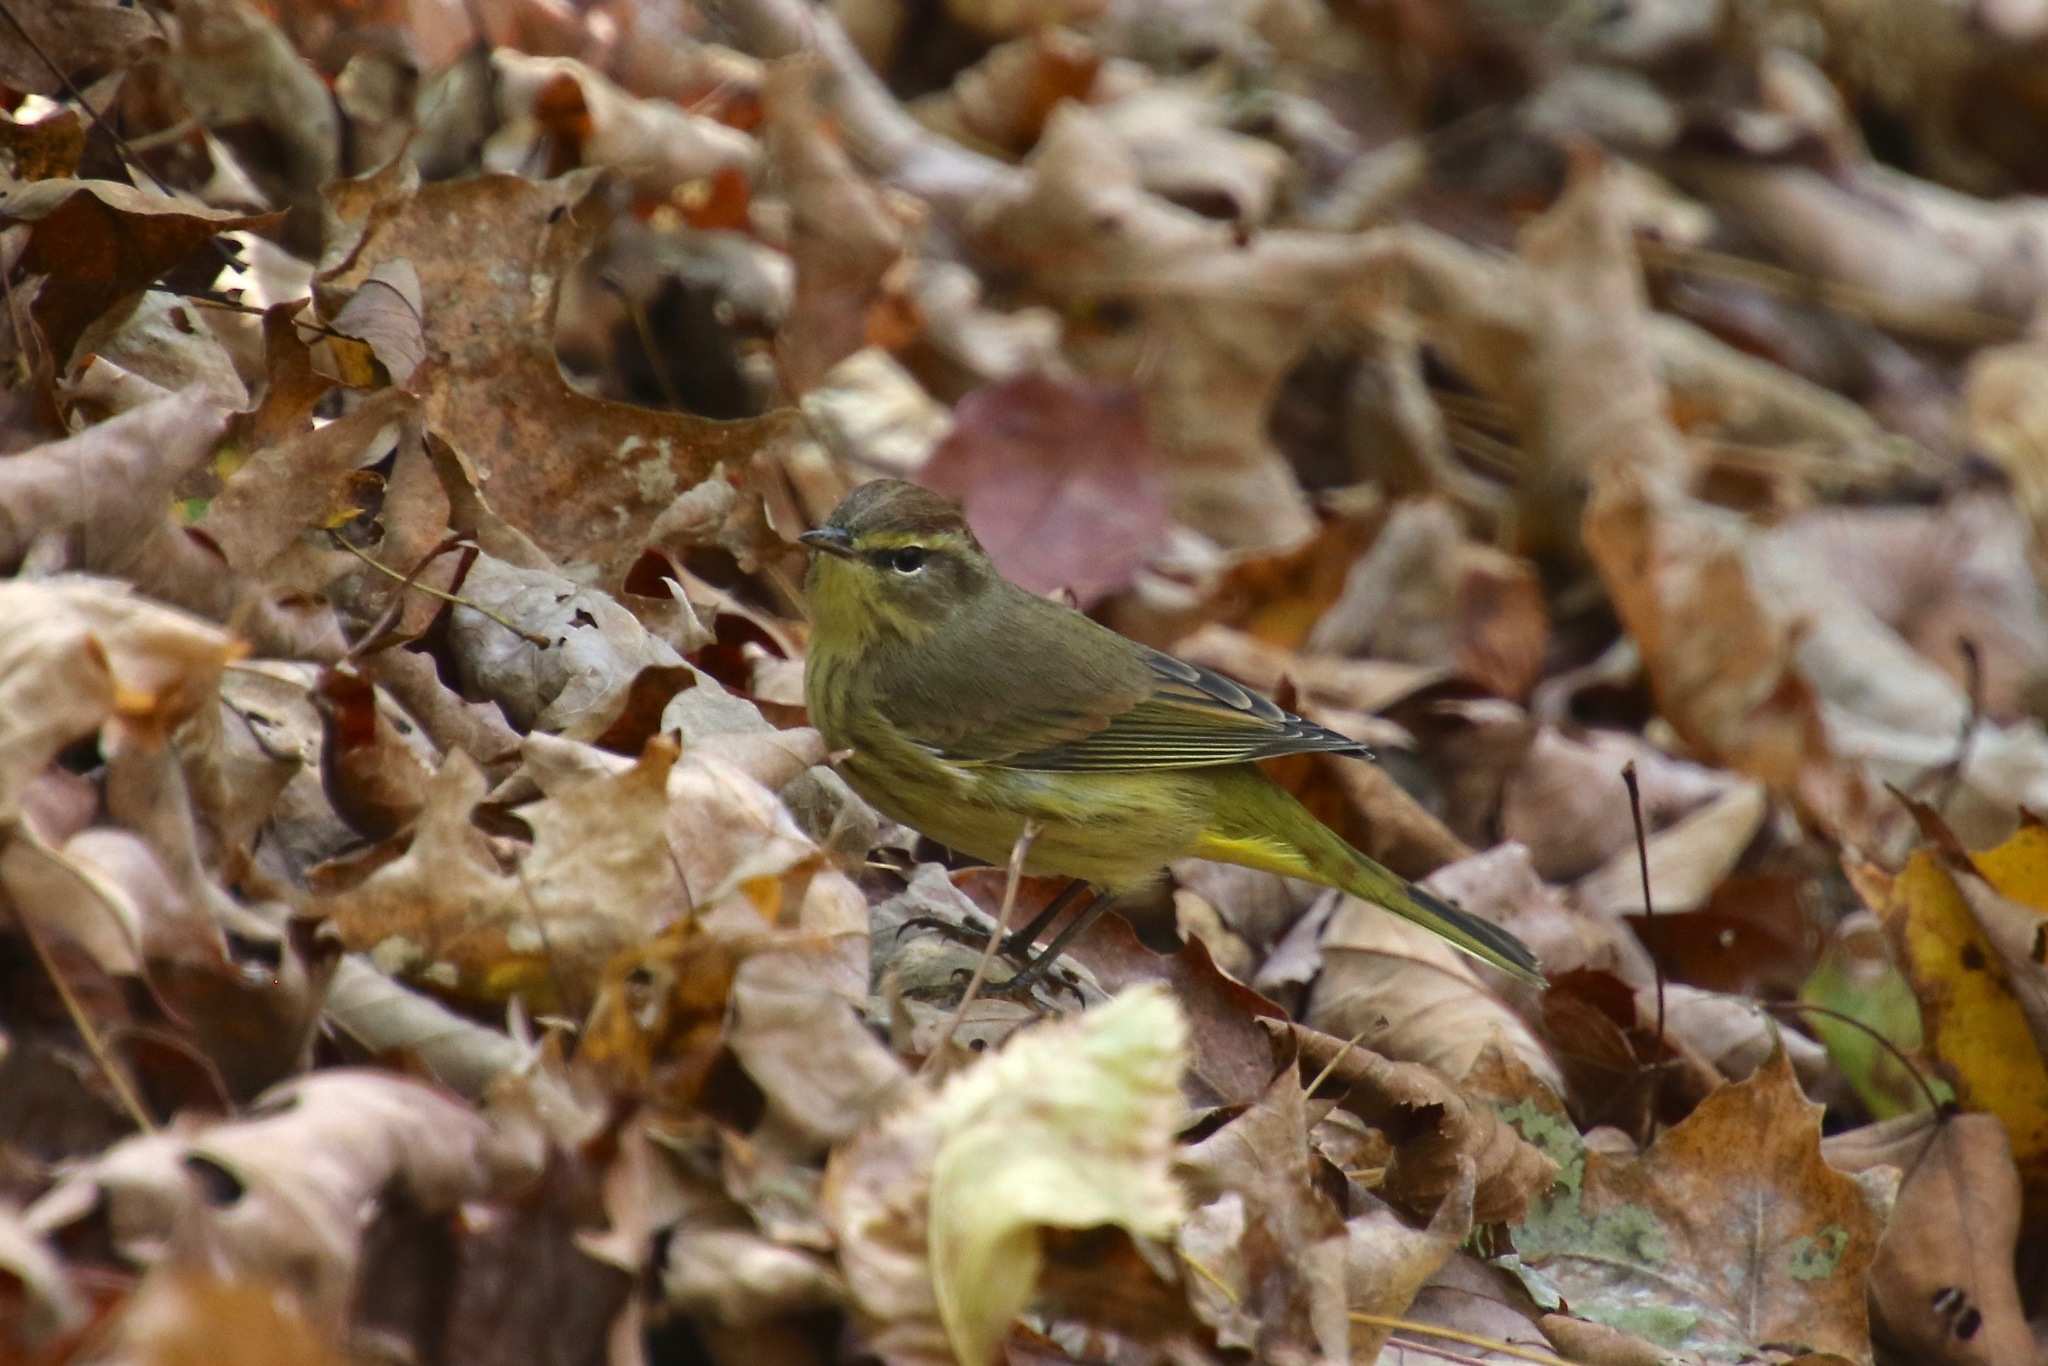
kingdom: Animalia
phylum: Chordata
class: Aves
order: Passeriformes
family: Parulidae
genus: Setophaga
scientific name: Setophaga palmarum
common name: Palm warbler
